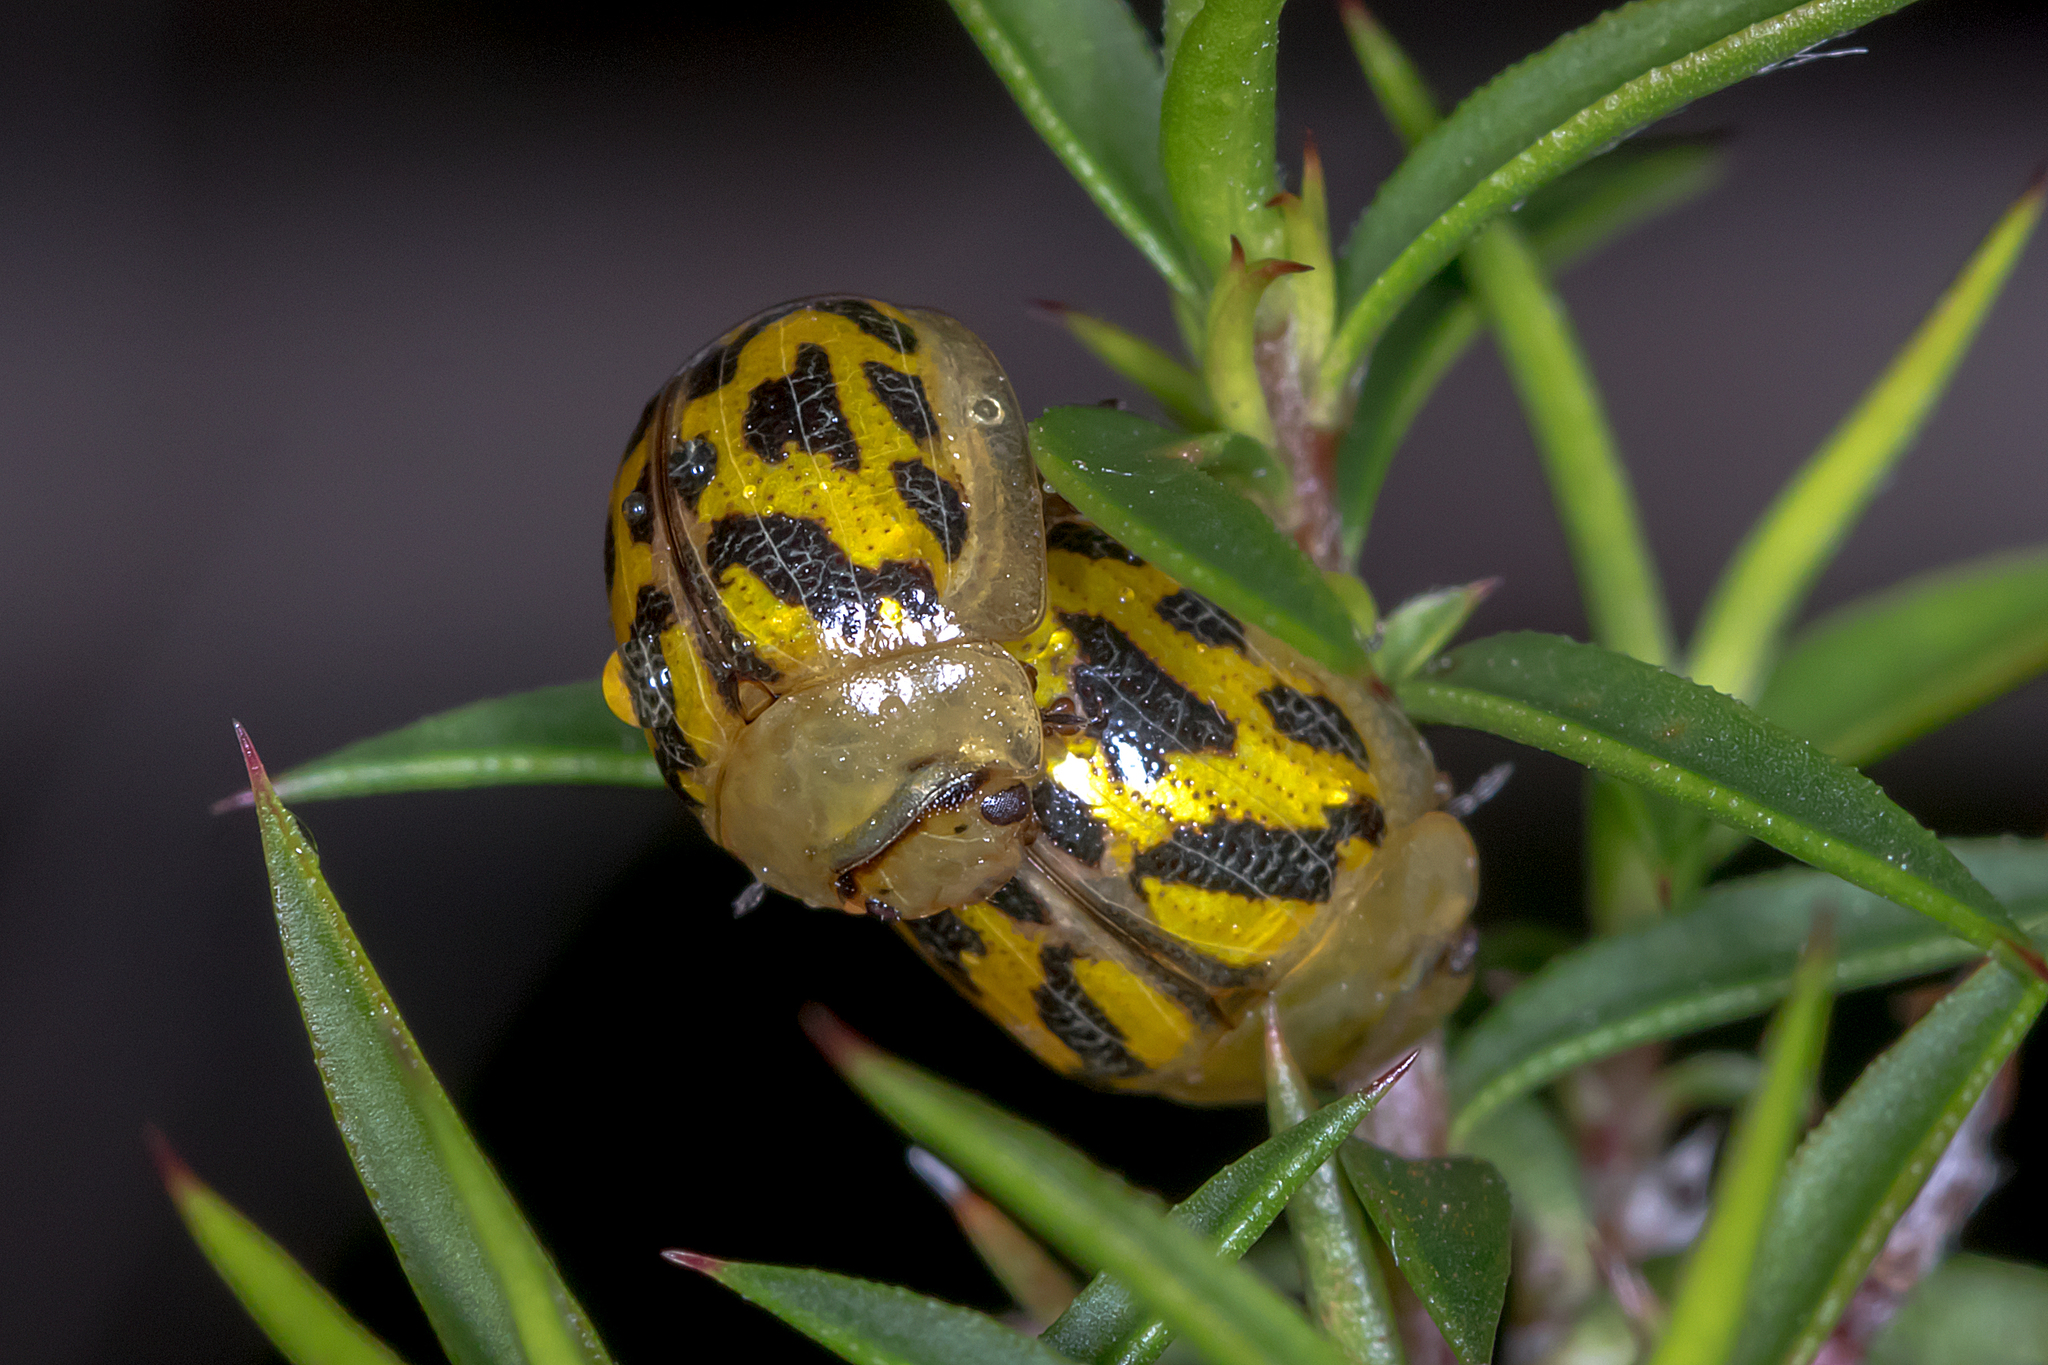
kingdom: Animalia
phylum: Arthropoda
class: Insecta
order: Coleoptera
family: Chrysomelidae
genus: Paropsisterna
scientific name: Paropsisterna
